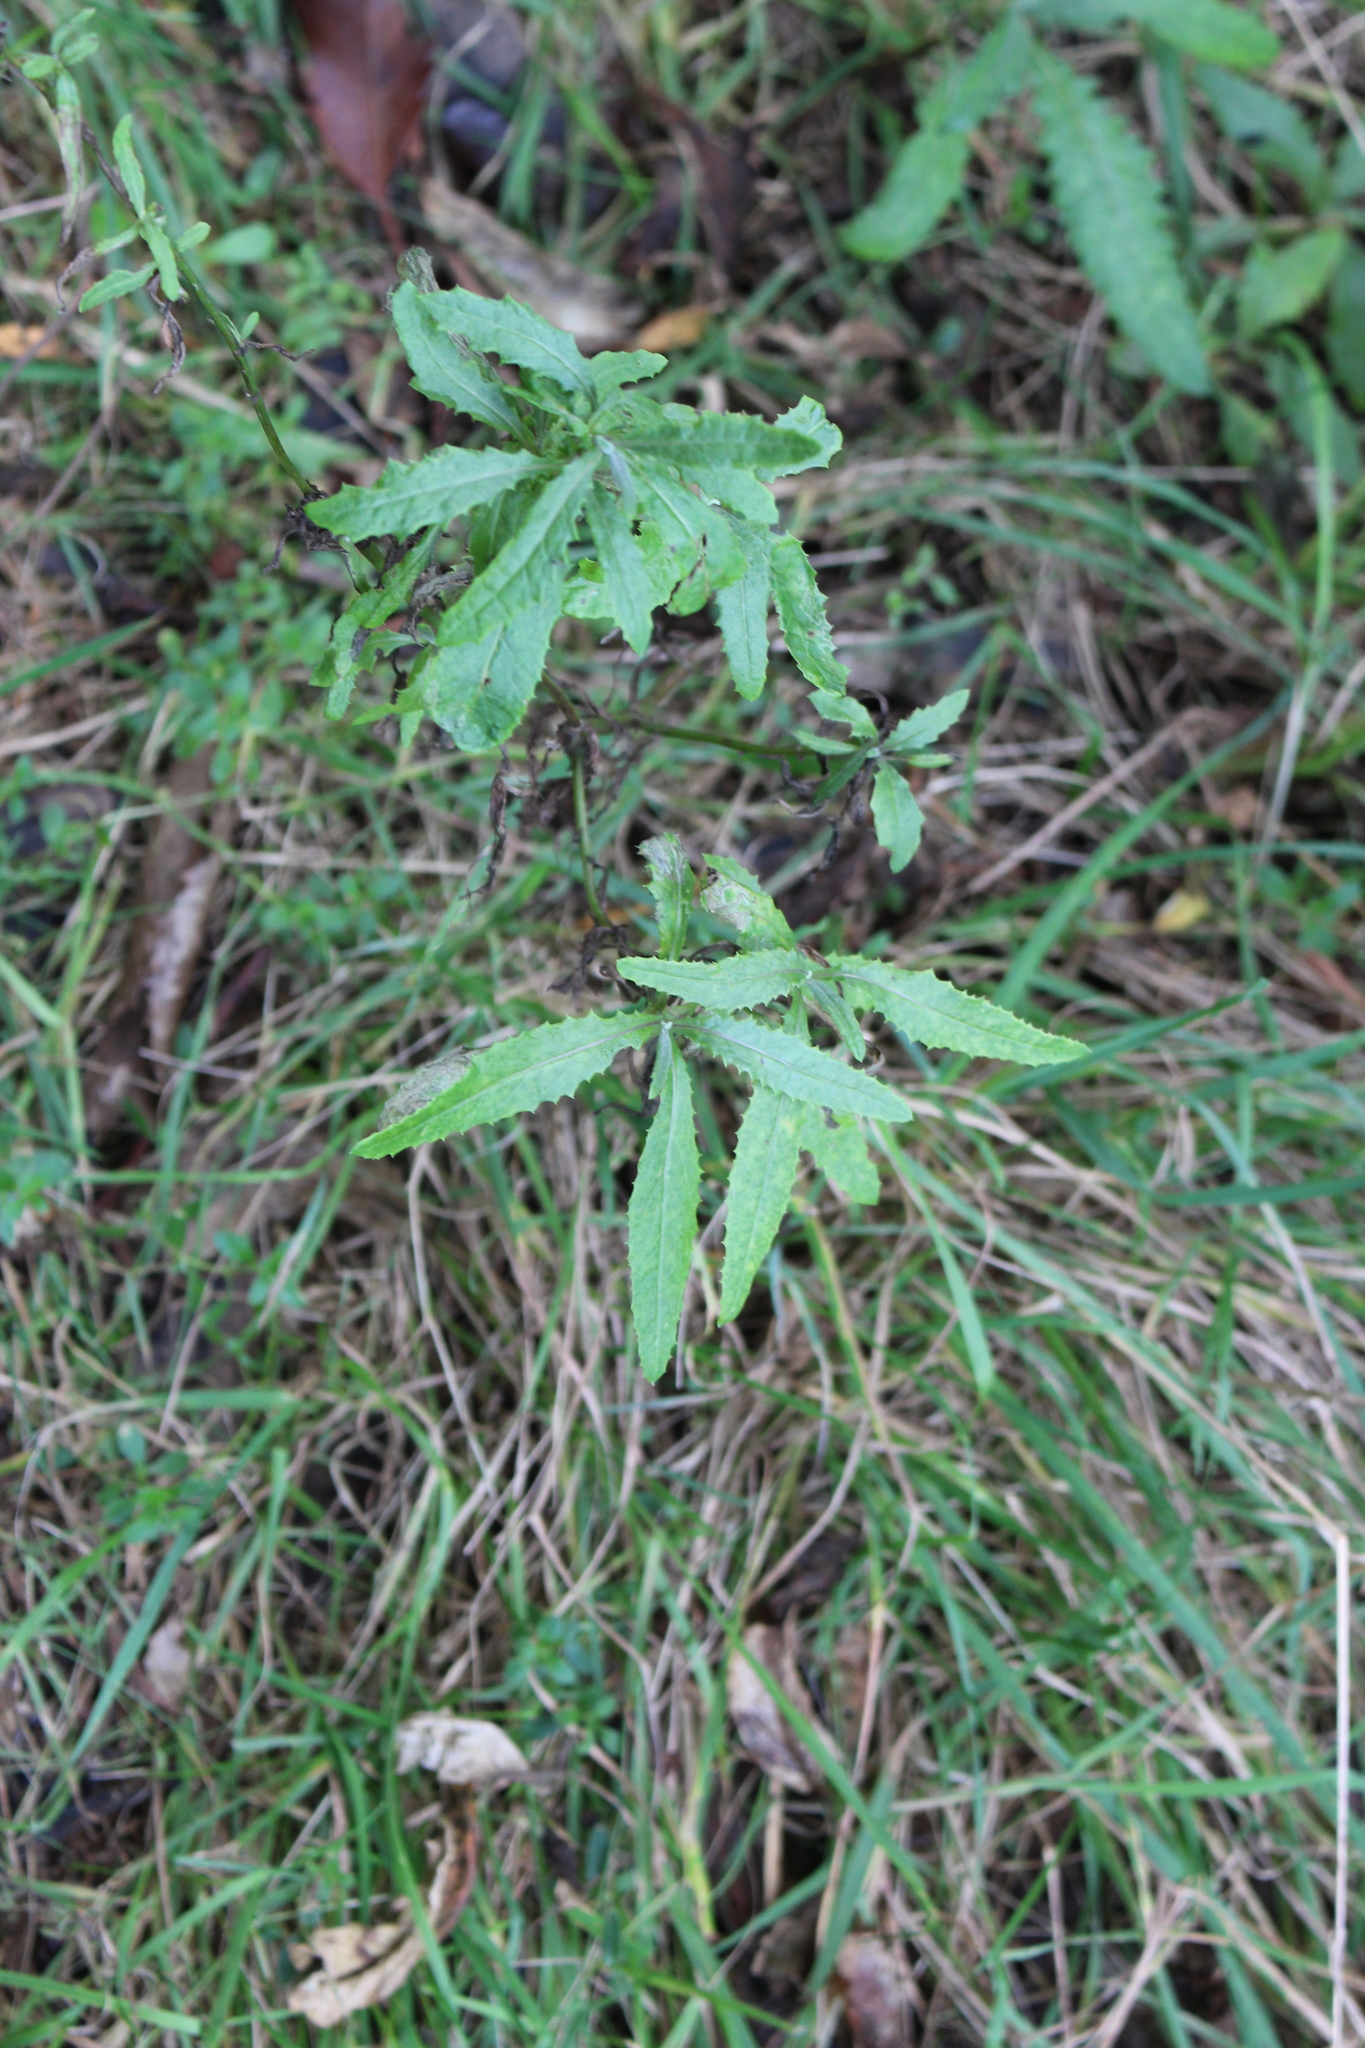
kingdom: Plantae
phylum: Tracheophyta
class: Magnoliopsida
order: Asterales
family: Asteraceae
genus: Senecio
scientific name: Senecio minimus
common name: Toothed fireweed
